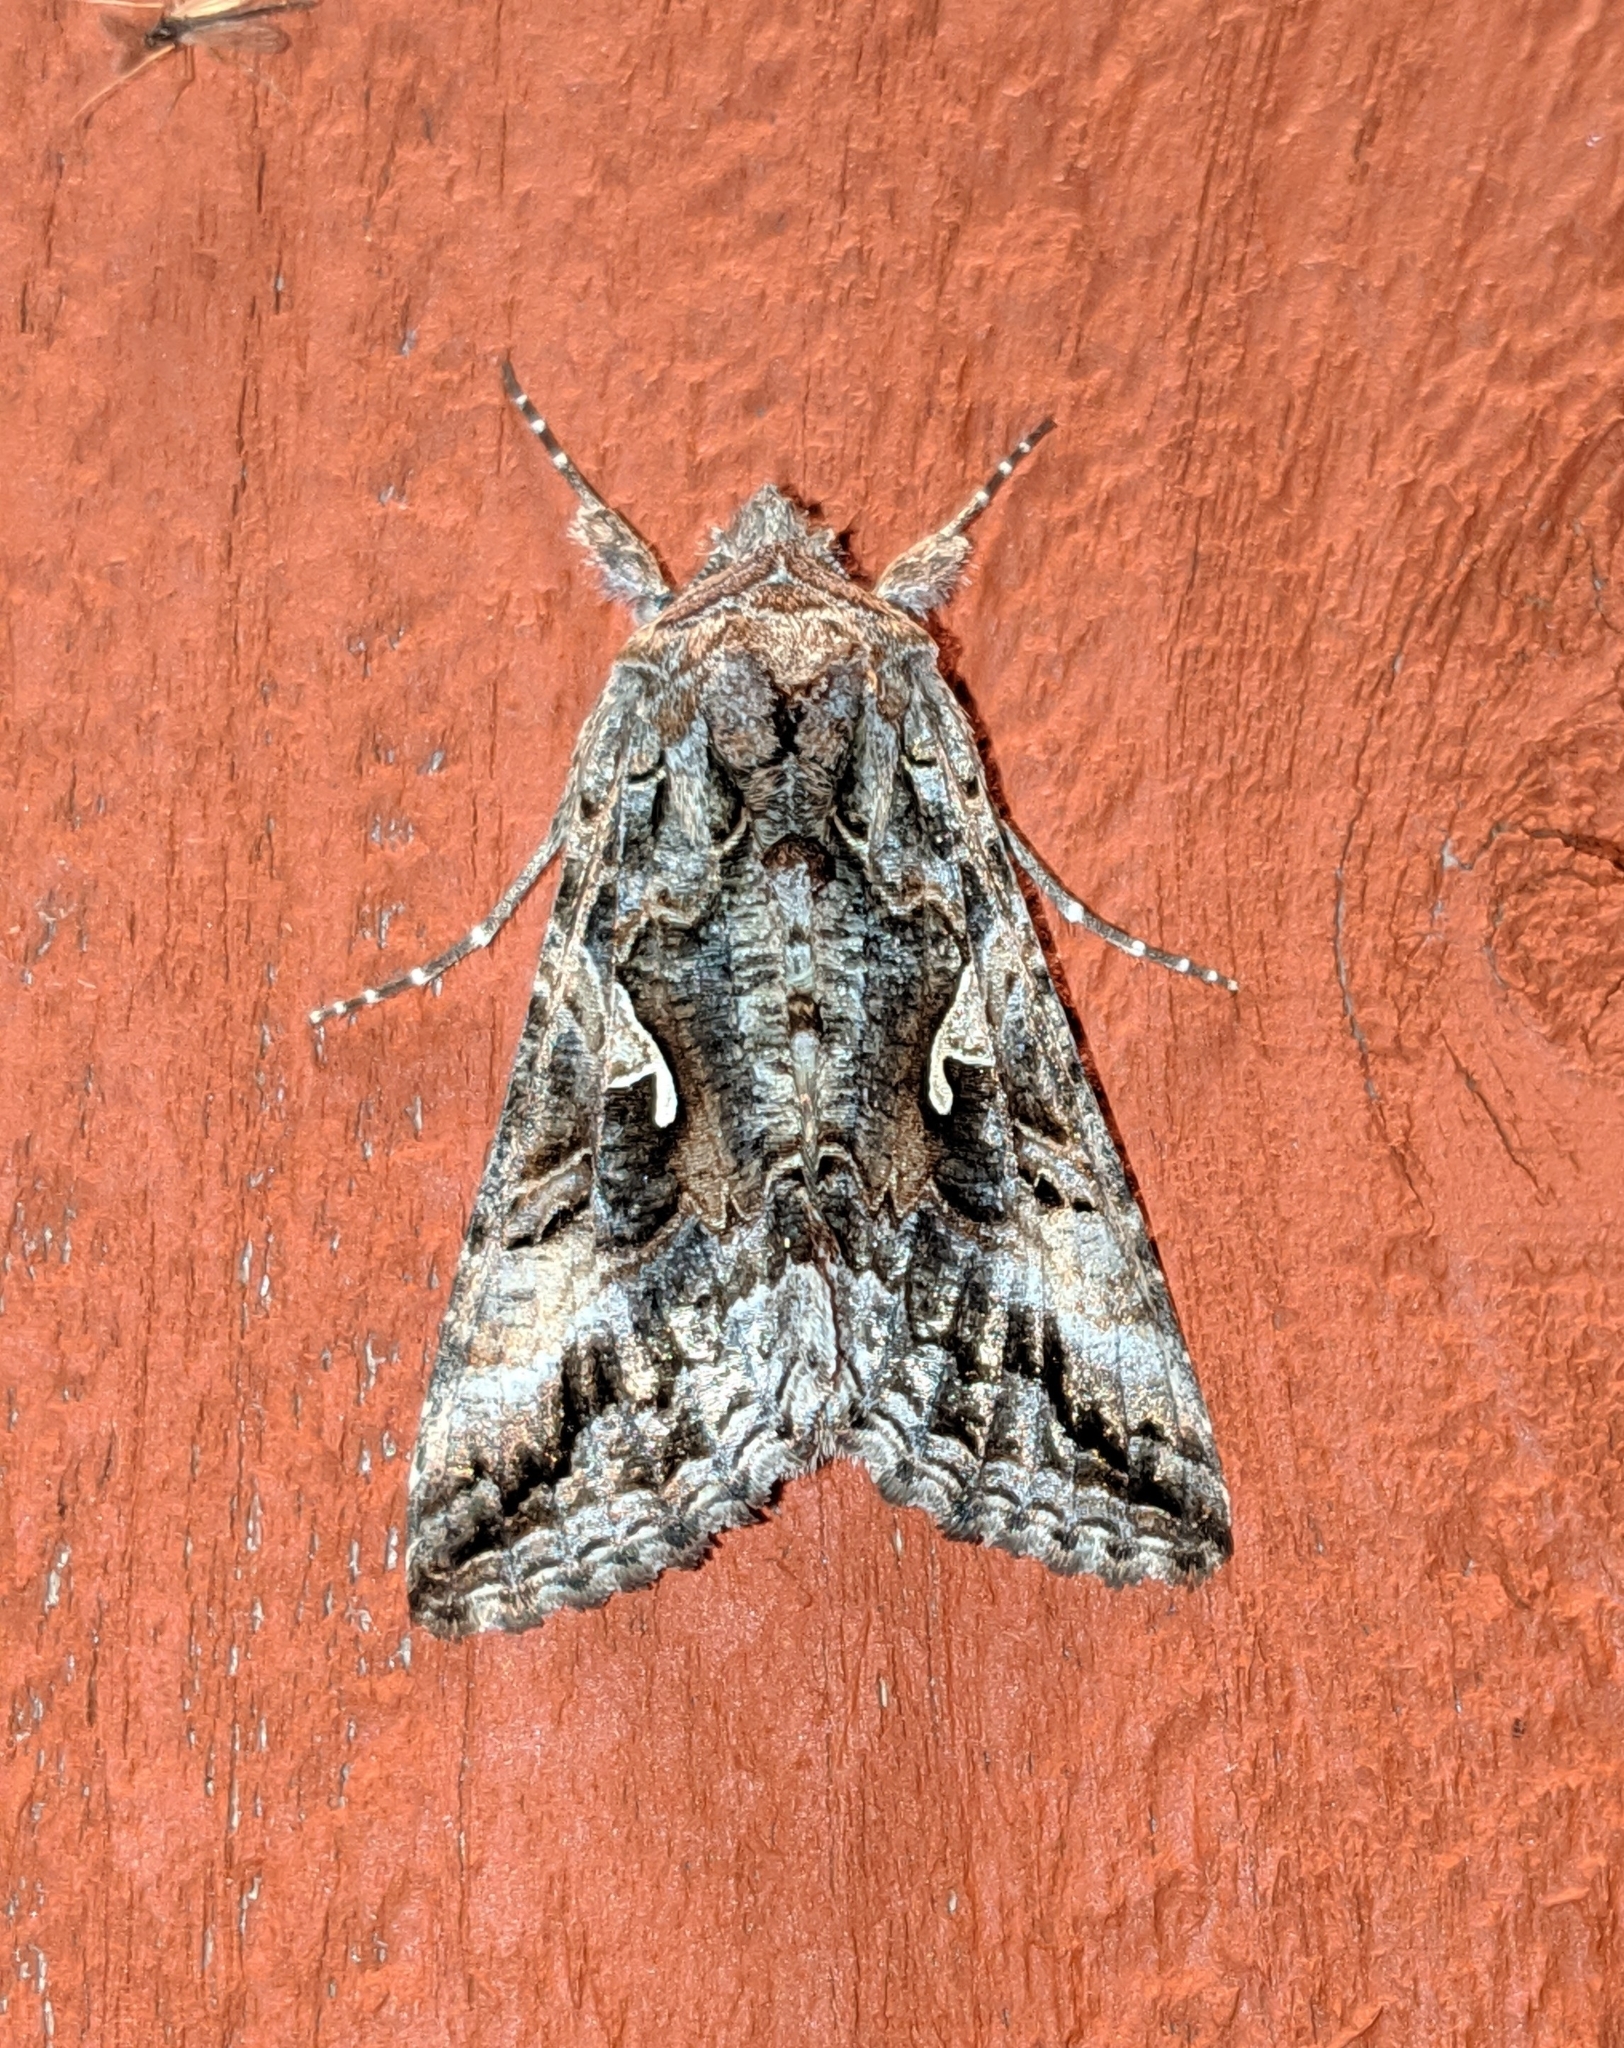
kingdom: Animalia
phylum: Arthropoda
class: Insecta
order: Lepidoptera
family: Noctuidae
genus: Autographa
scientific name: Autographa californica
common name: Alfalfa looper
